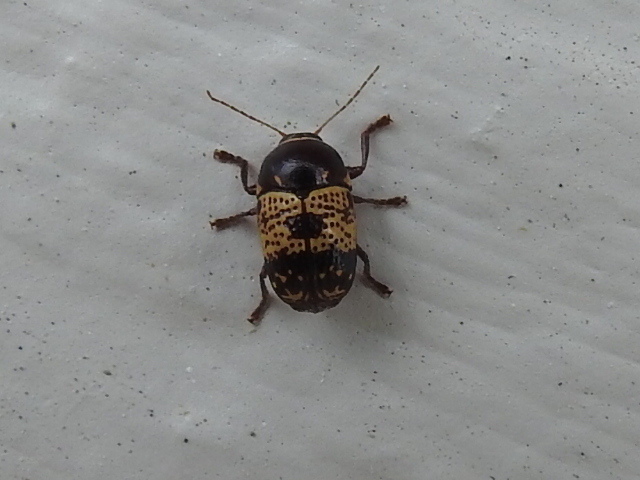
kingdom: Animalia
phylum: Arthropoda
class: Insecta
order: Coleoptera
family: Chrysomelidae
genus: Cryptocephalus
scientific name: Cryptocephalus irroratus
